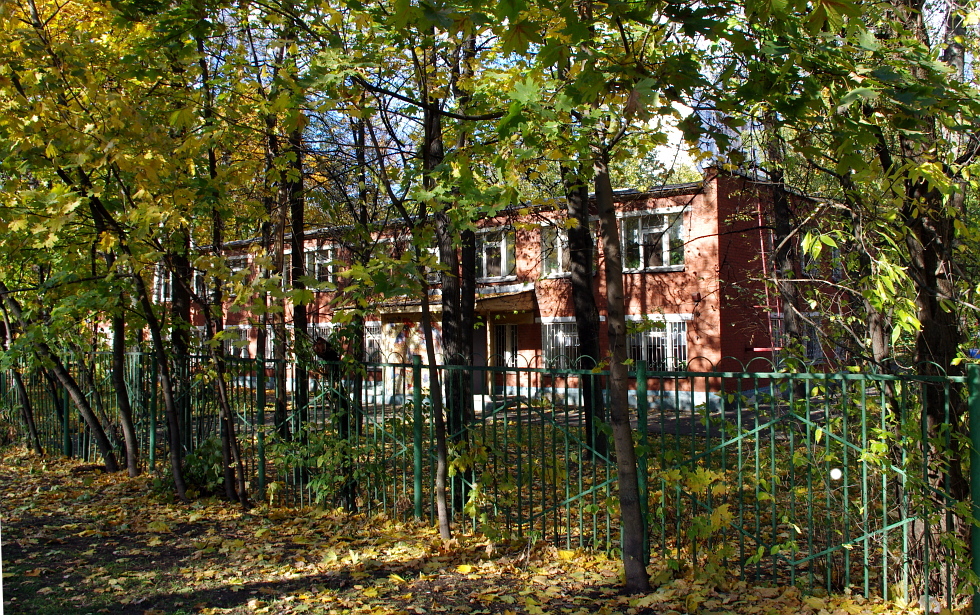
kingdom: Plantae
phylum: Tracheophyta
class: Magnoliopsida
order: Sapindales
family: Sapindaceae
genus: Acer
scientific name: Acer negundo
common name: Ashleaf maple
